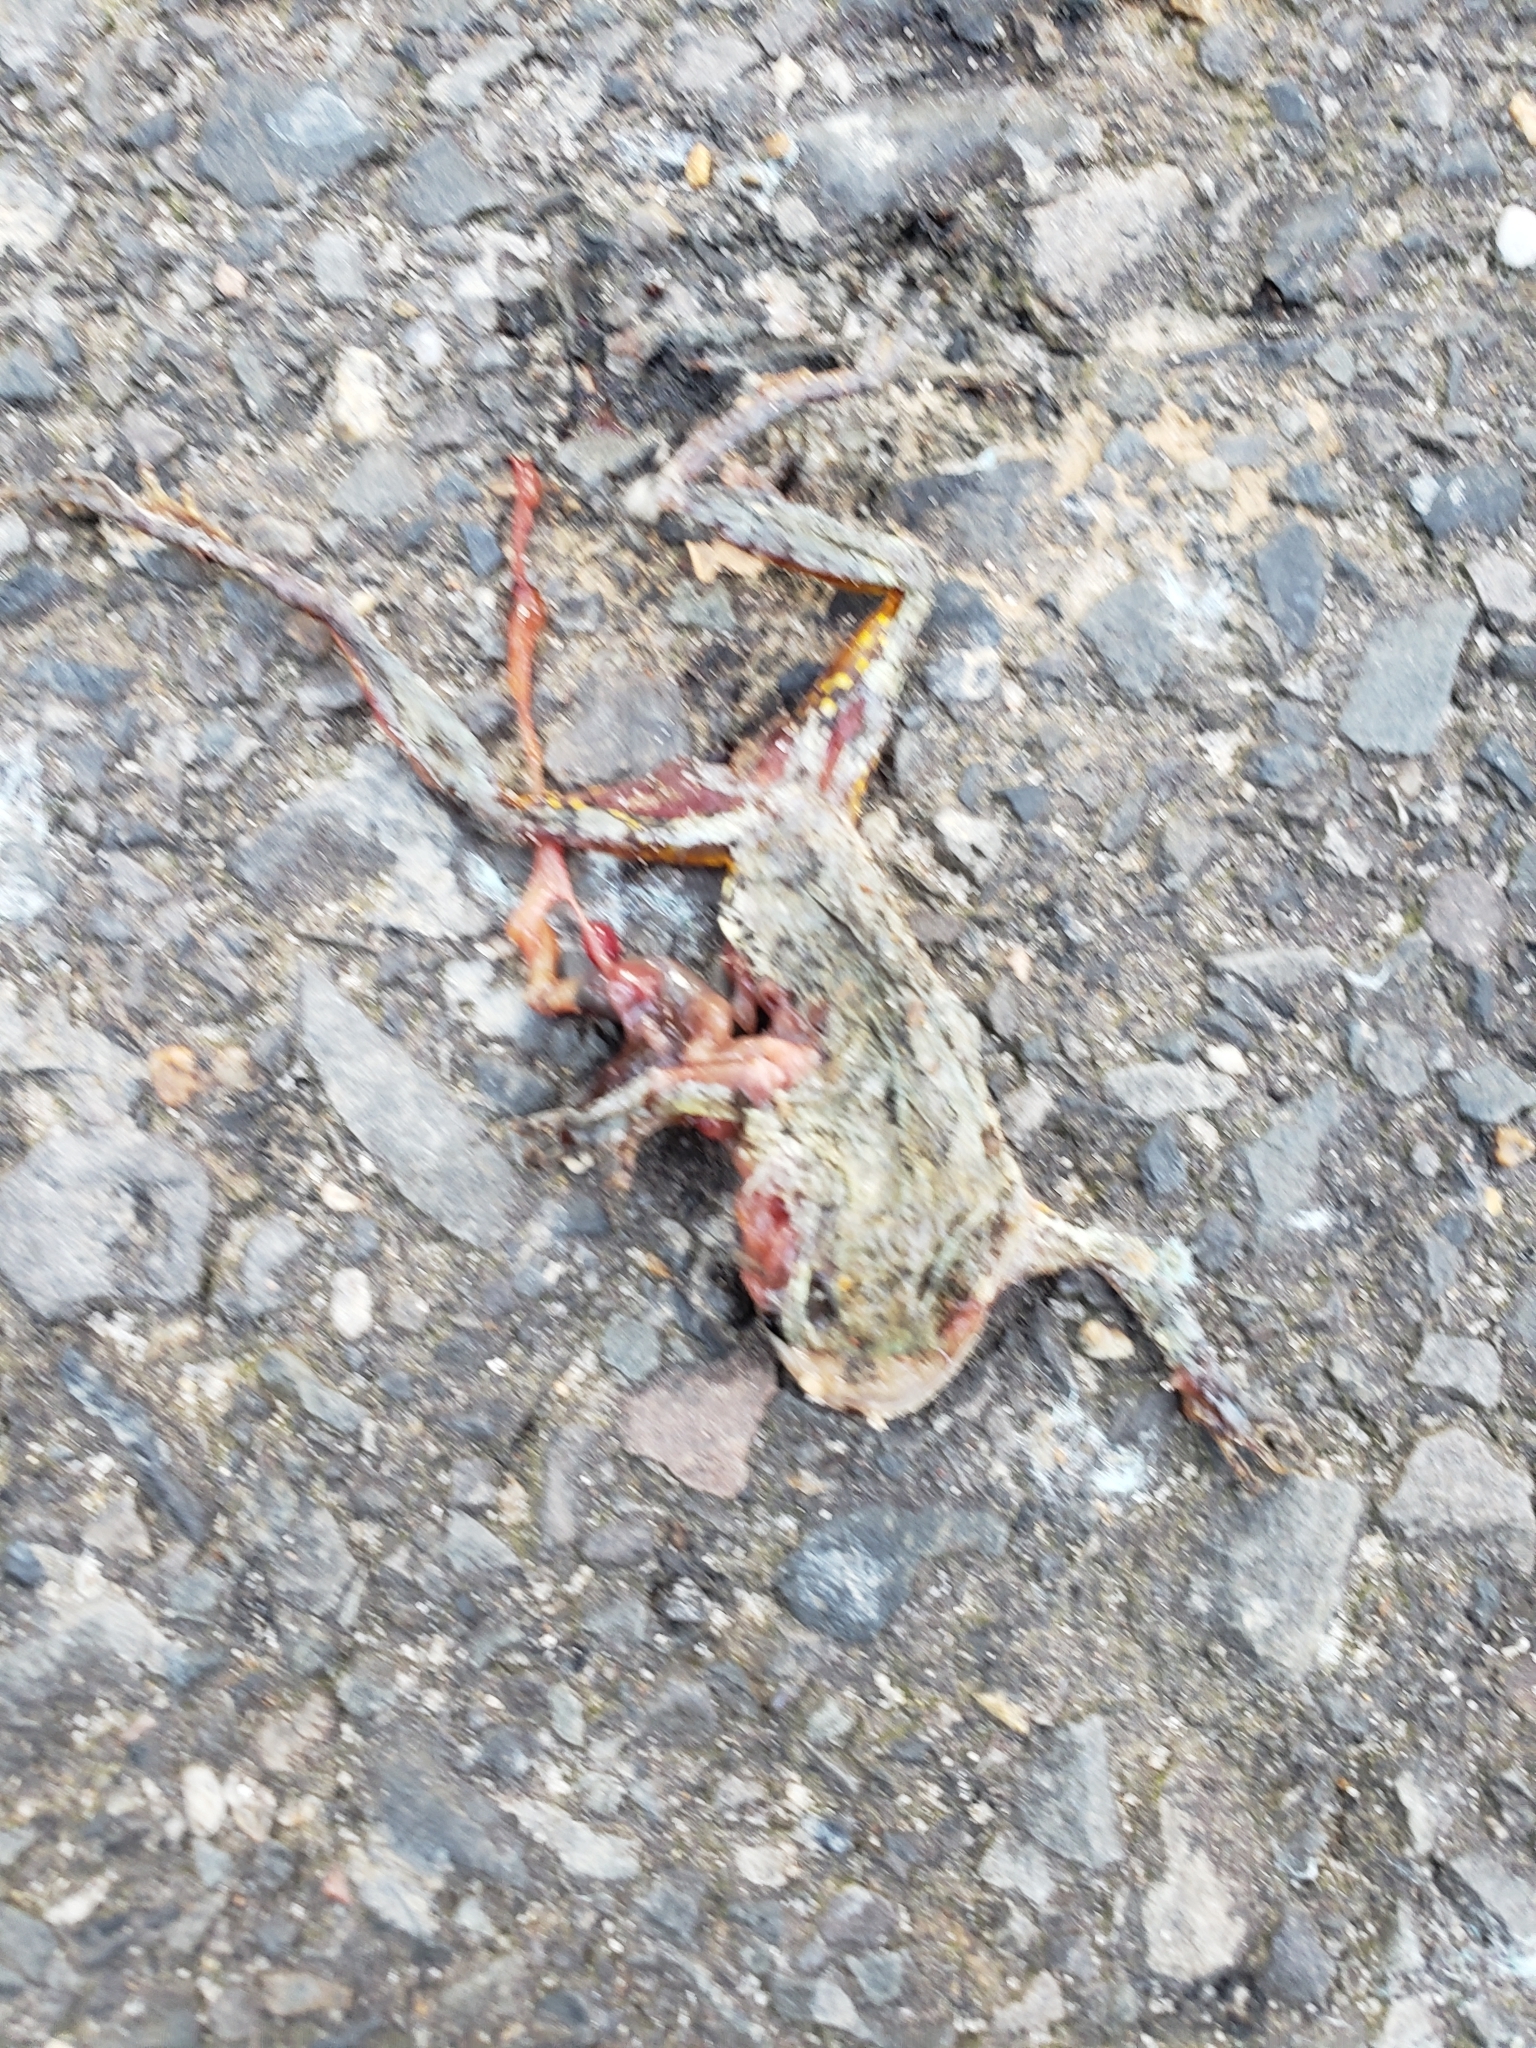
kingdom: Animalia
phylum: Chordata
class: Amphibia
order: Anura
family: Hylidae
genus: Dryophytes
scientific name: Dryophytes chrysoscelis
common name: Cope's gray treefrog
